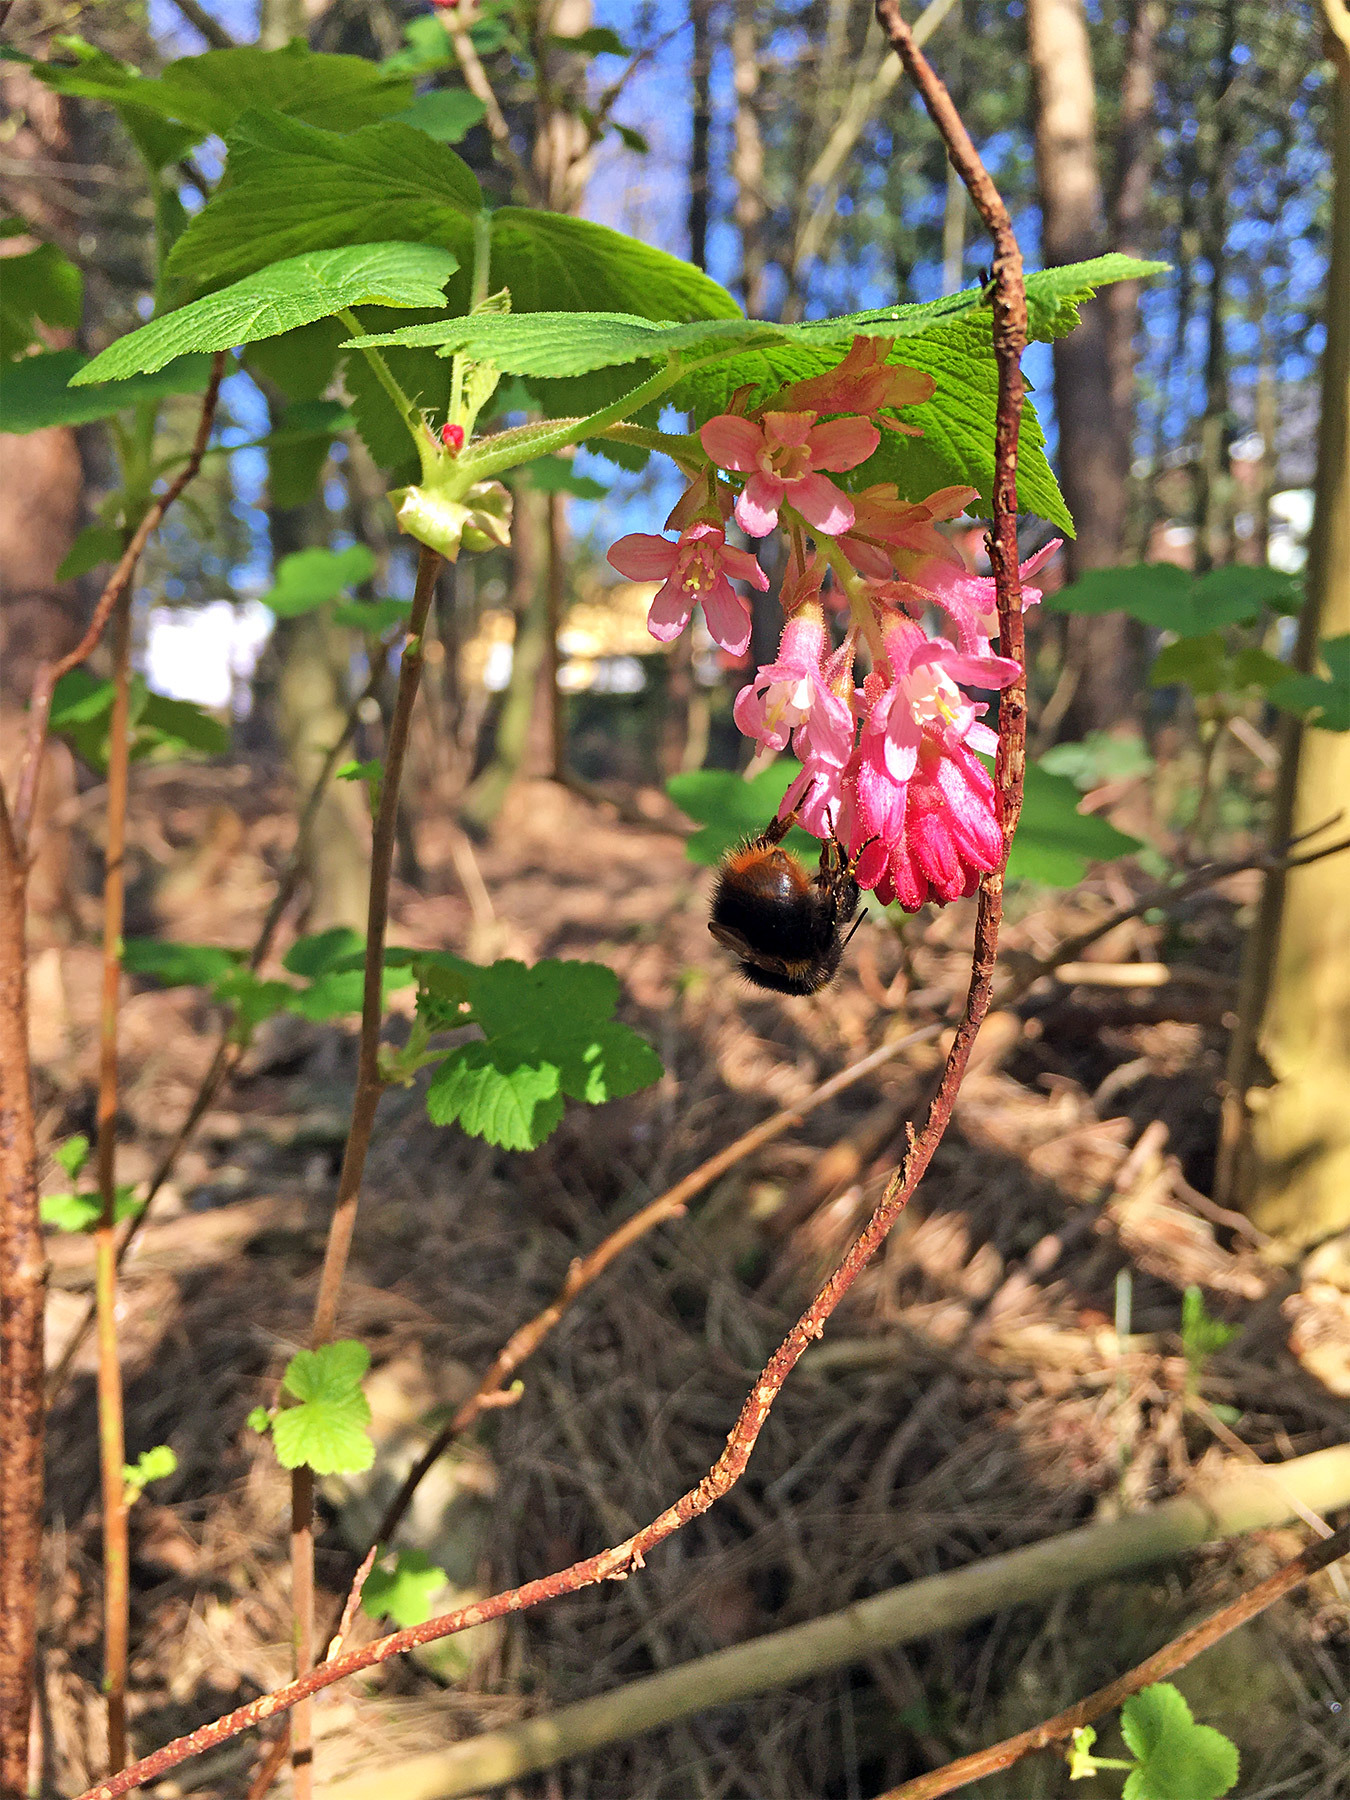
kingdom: Plantae
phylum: Tracheophyta
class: Magnoliopsida
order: Saxifragales
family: Grossulariaceae
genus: Ribes
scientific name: Ribes sanguineum
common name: Flowering currant
